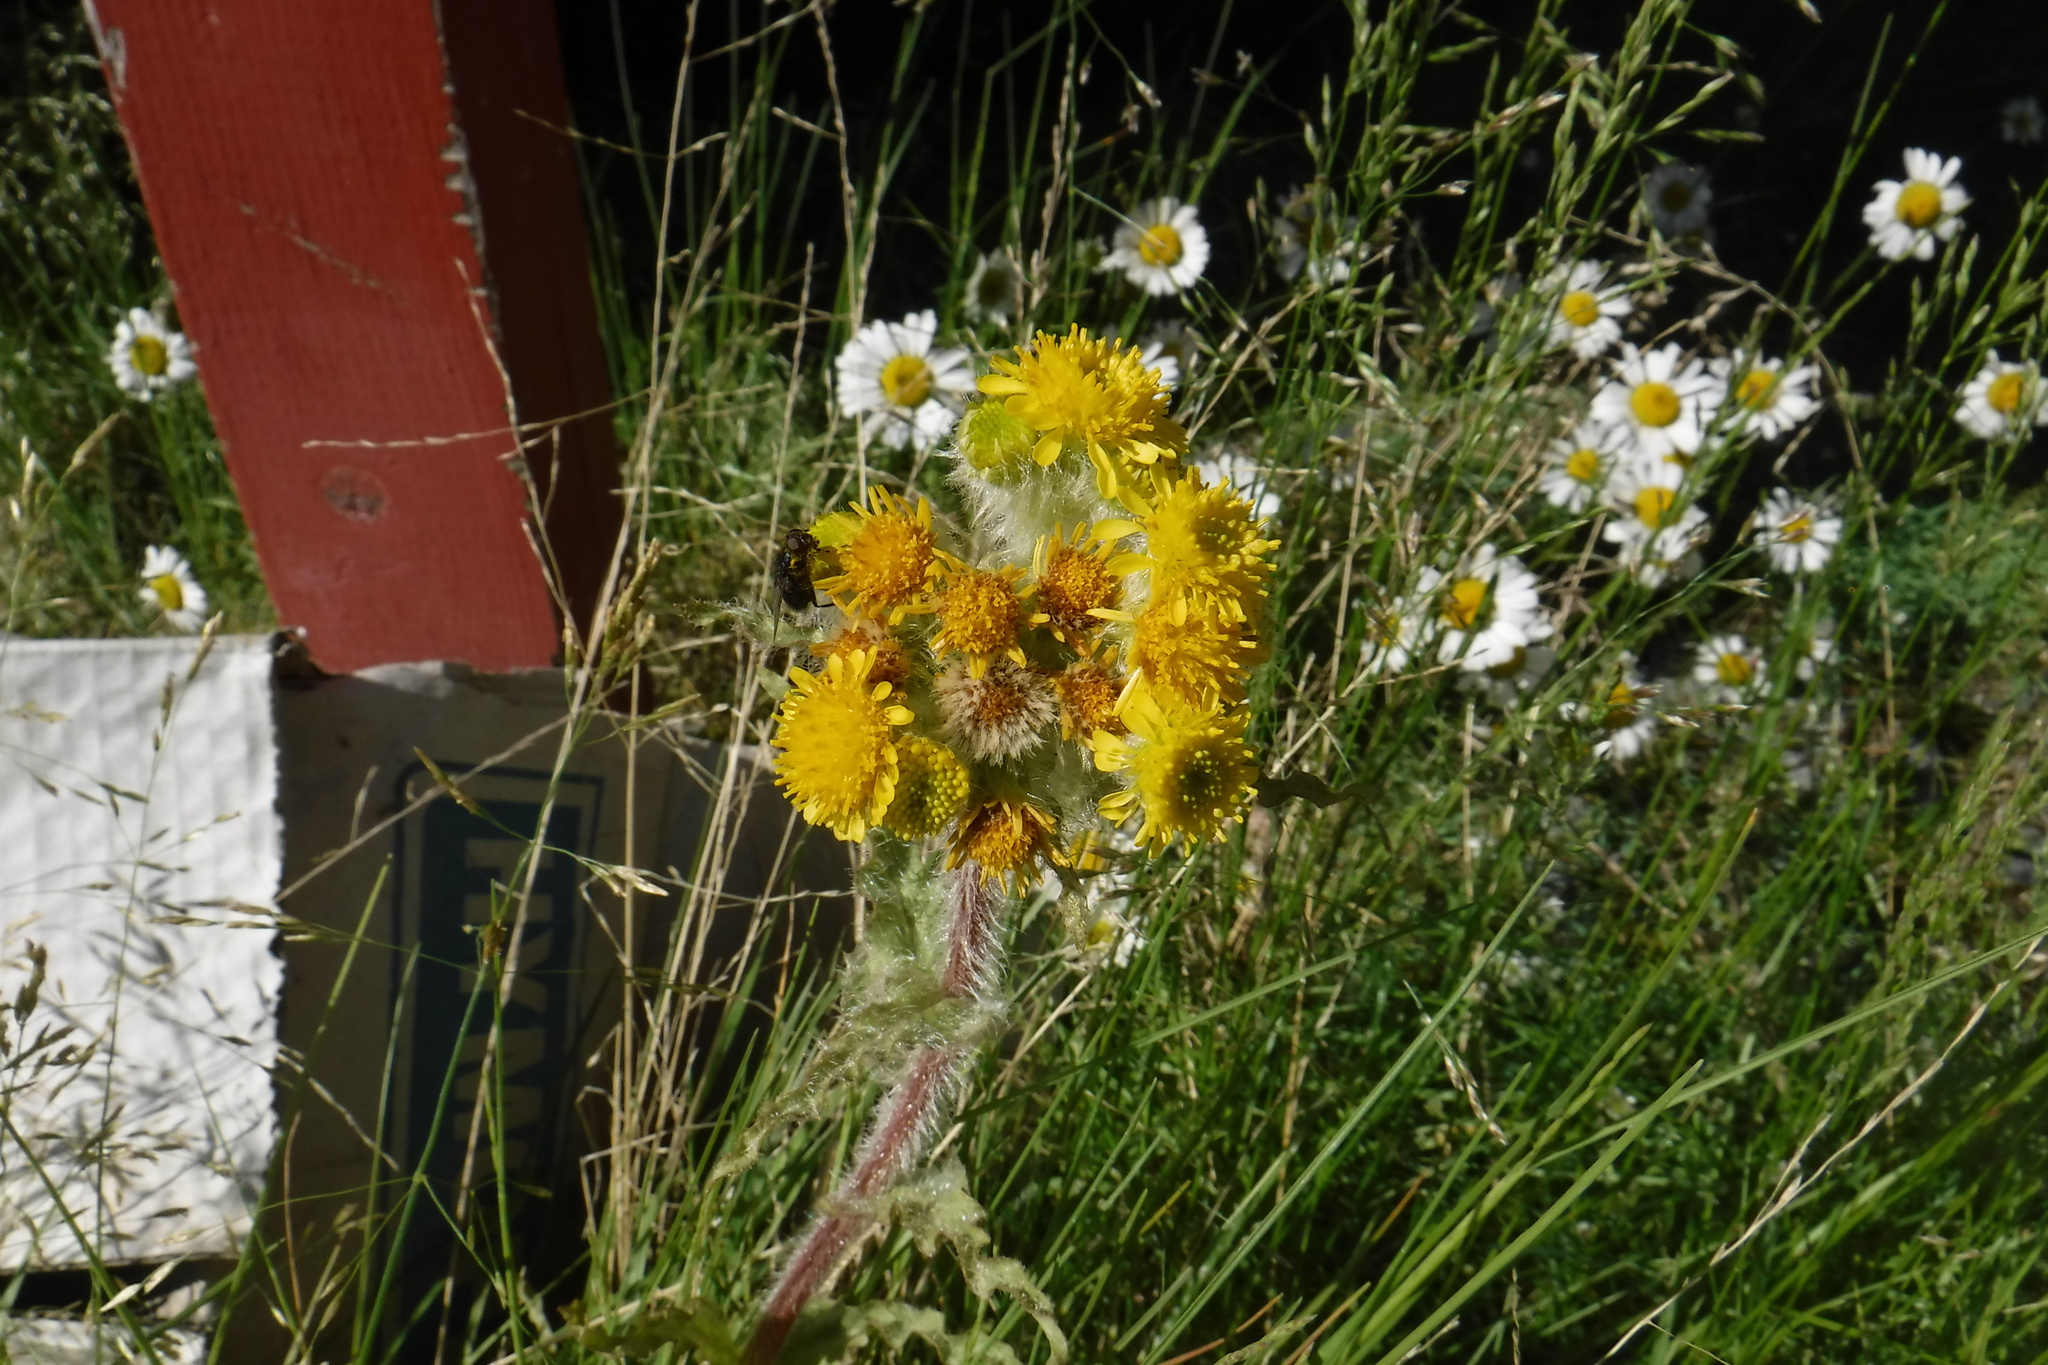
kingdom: Plantae
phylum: Tracheophyta
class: Magnoliopsida
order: Asterales
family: Asteraceae
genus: Tephroseris
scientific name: Tephroseris palustris
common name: Marsh fleawort
